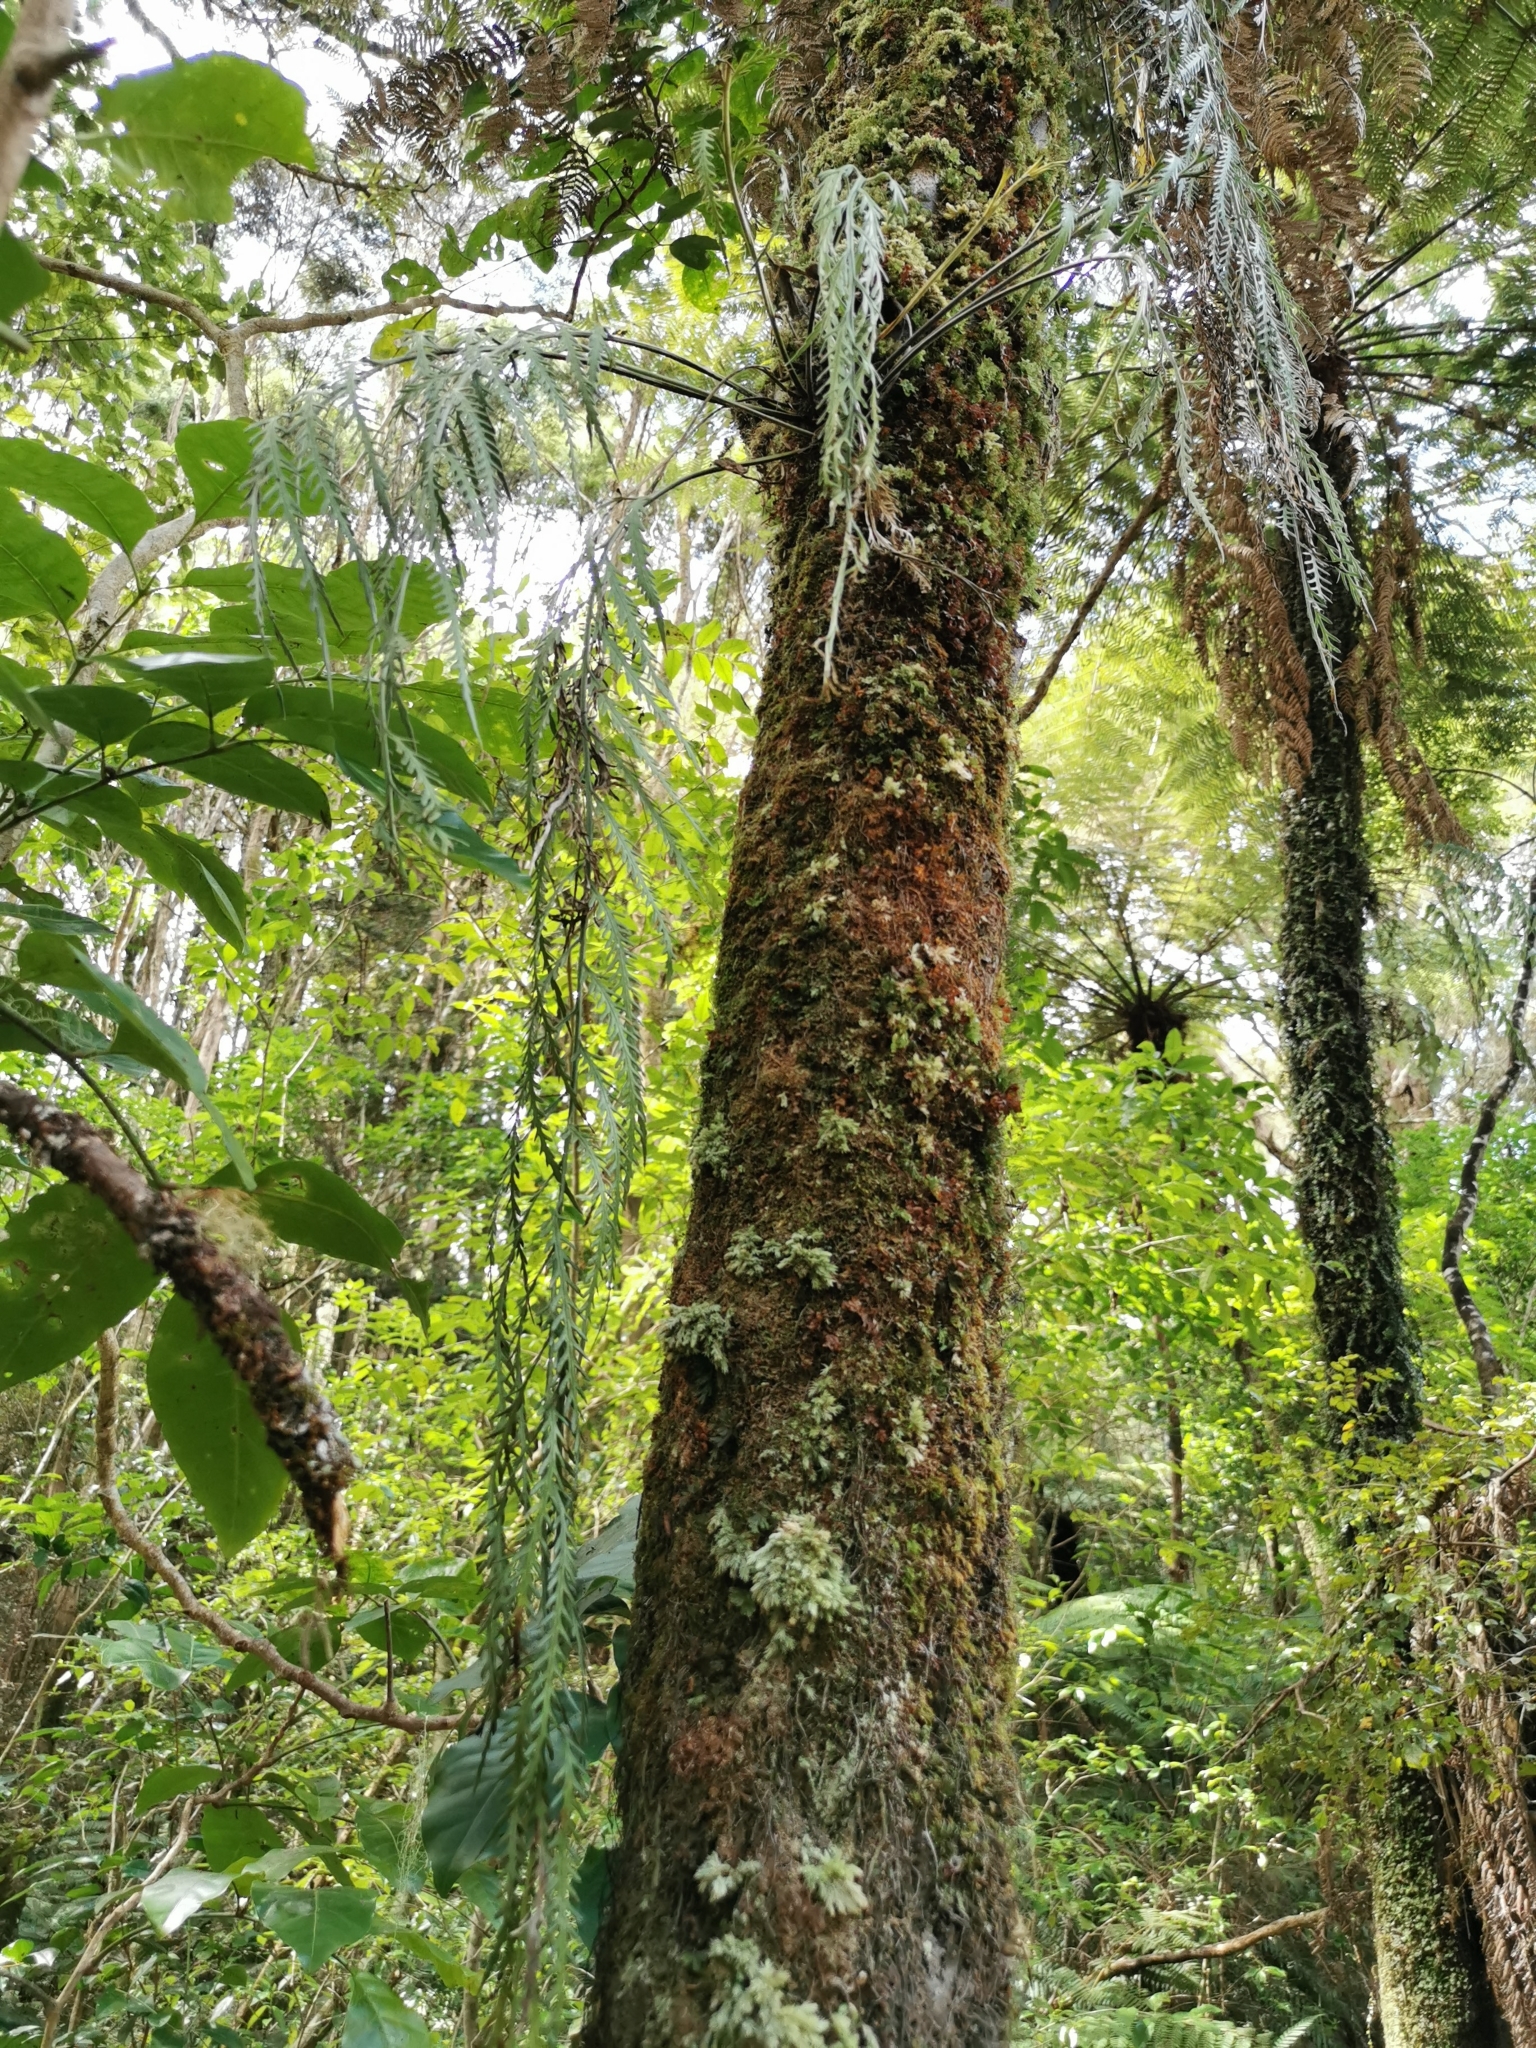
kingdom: Plantae
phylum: Tracheophyta
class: Polypodiopsida
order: Polypodiales
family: Aspleniaceae
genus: Asplenium
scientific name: Asplenium flaccidum
